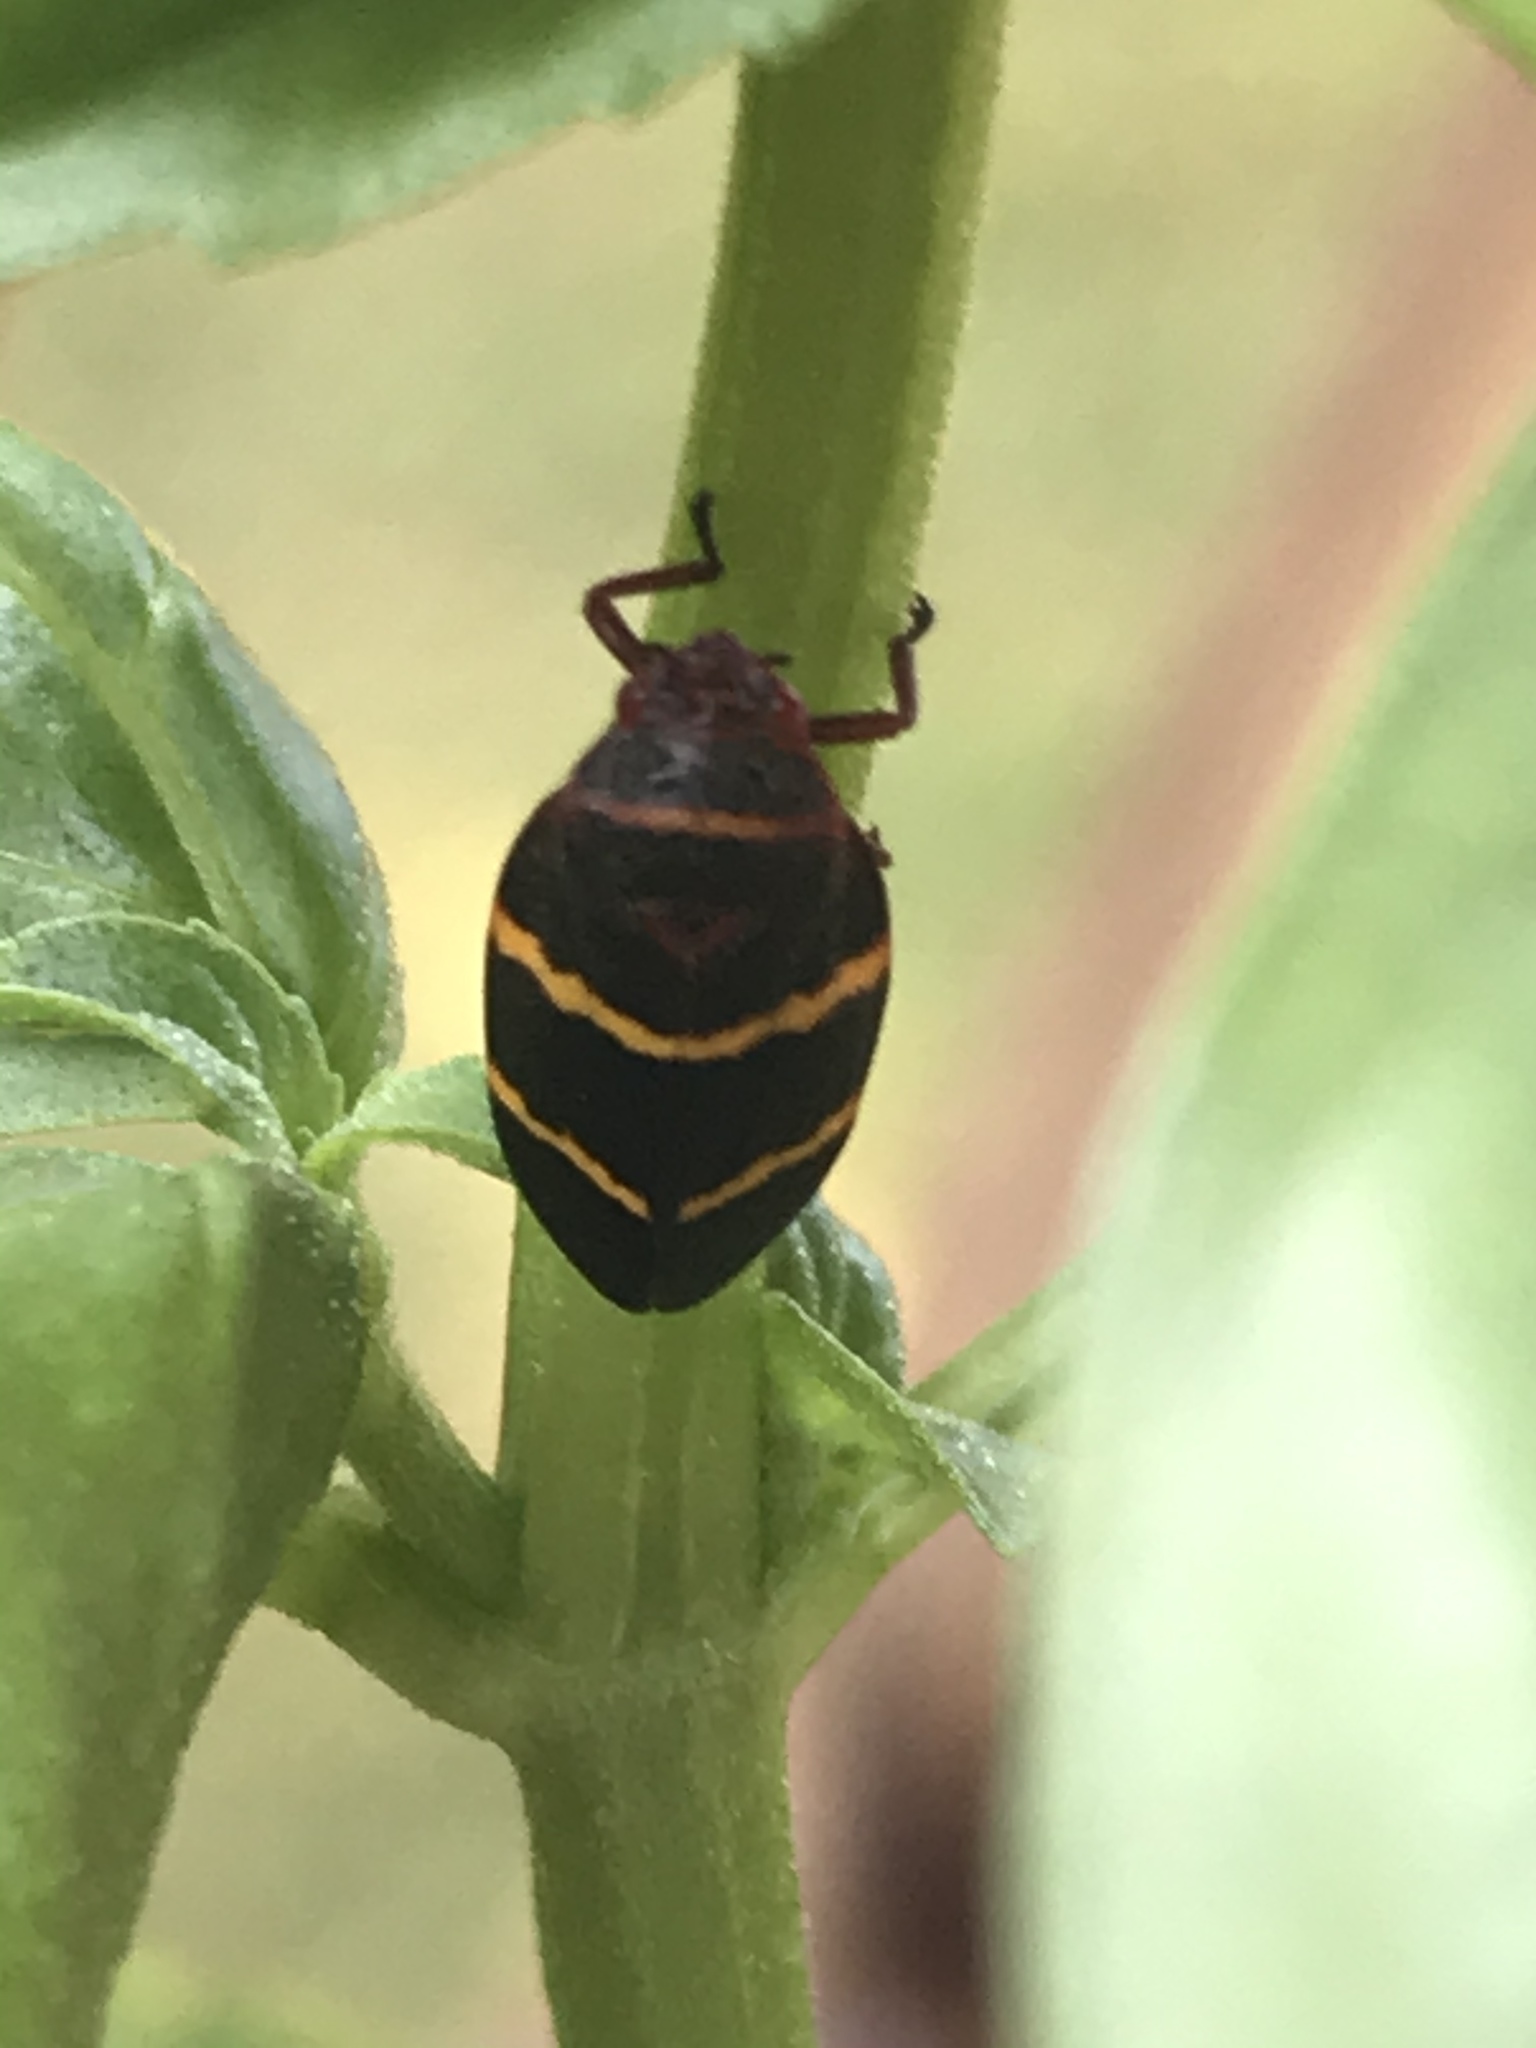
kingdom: Animalia
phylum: Arthropoda
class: Insecta
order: Hemiptera
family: Cercopidae
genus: Prosapia
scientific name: Prosapia bicincta
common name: Twolined spittlebug
